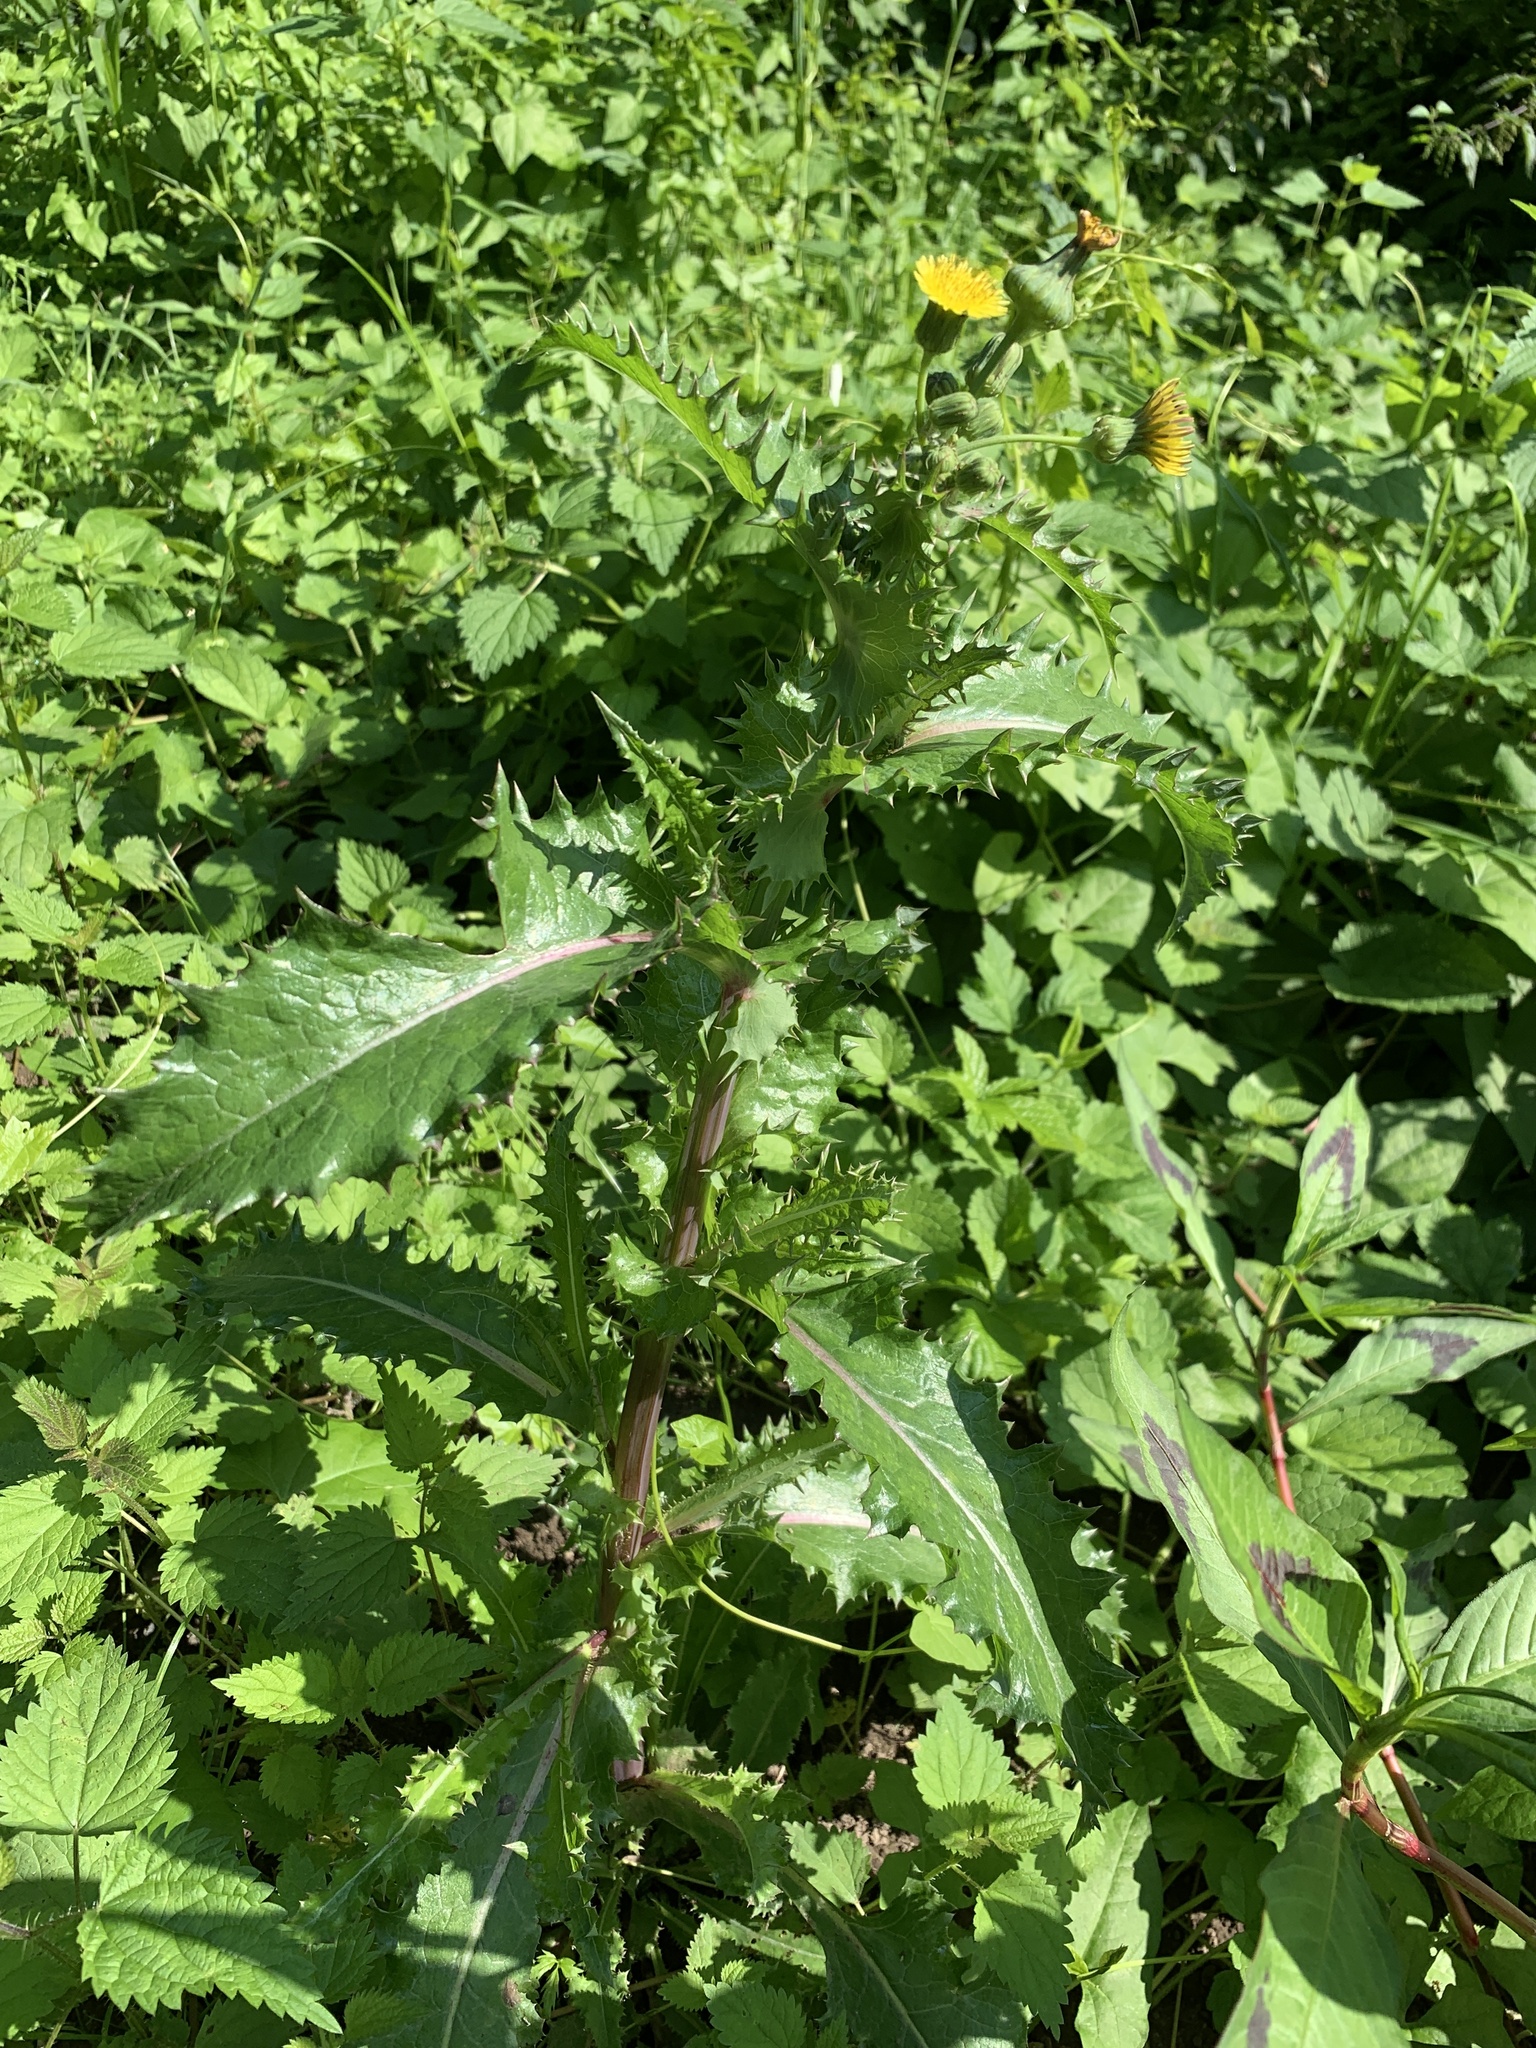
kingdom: Plantae
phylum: Tracheophyta
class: Magnoliopsida
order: Asterales
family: Asteraceae
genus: Sonchus
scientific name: Sonchus asper
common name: Prickly sow-thistle
